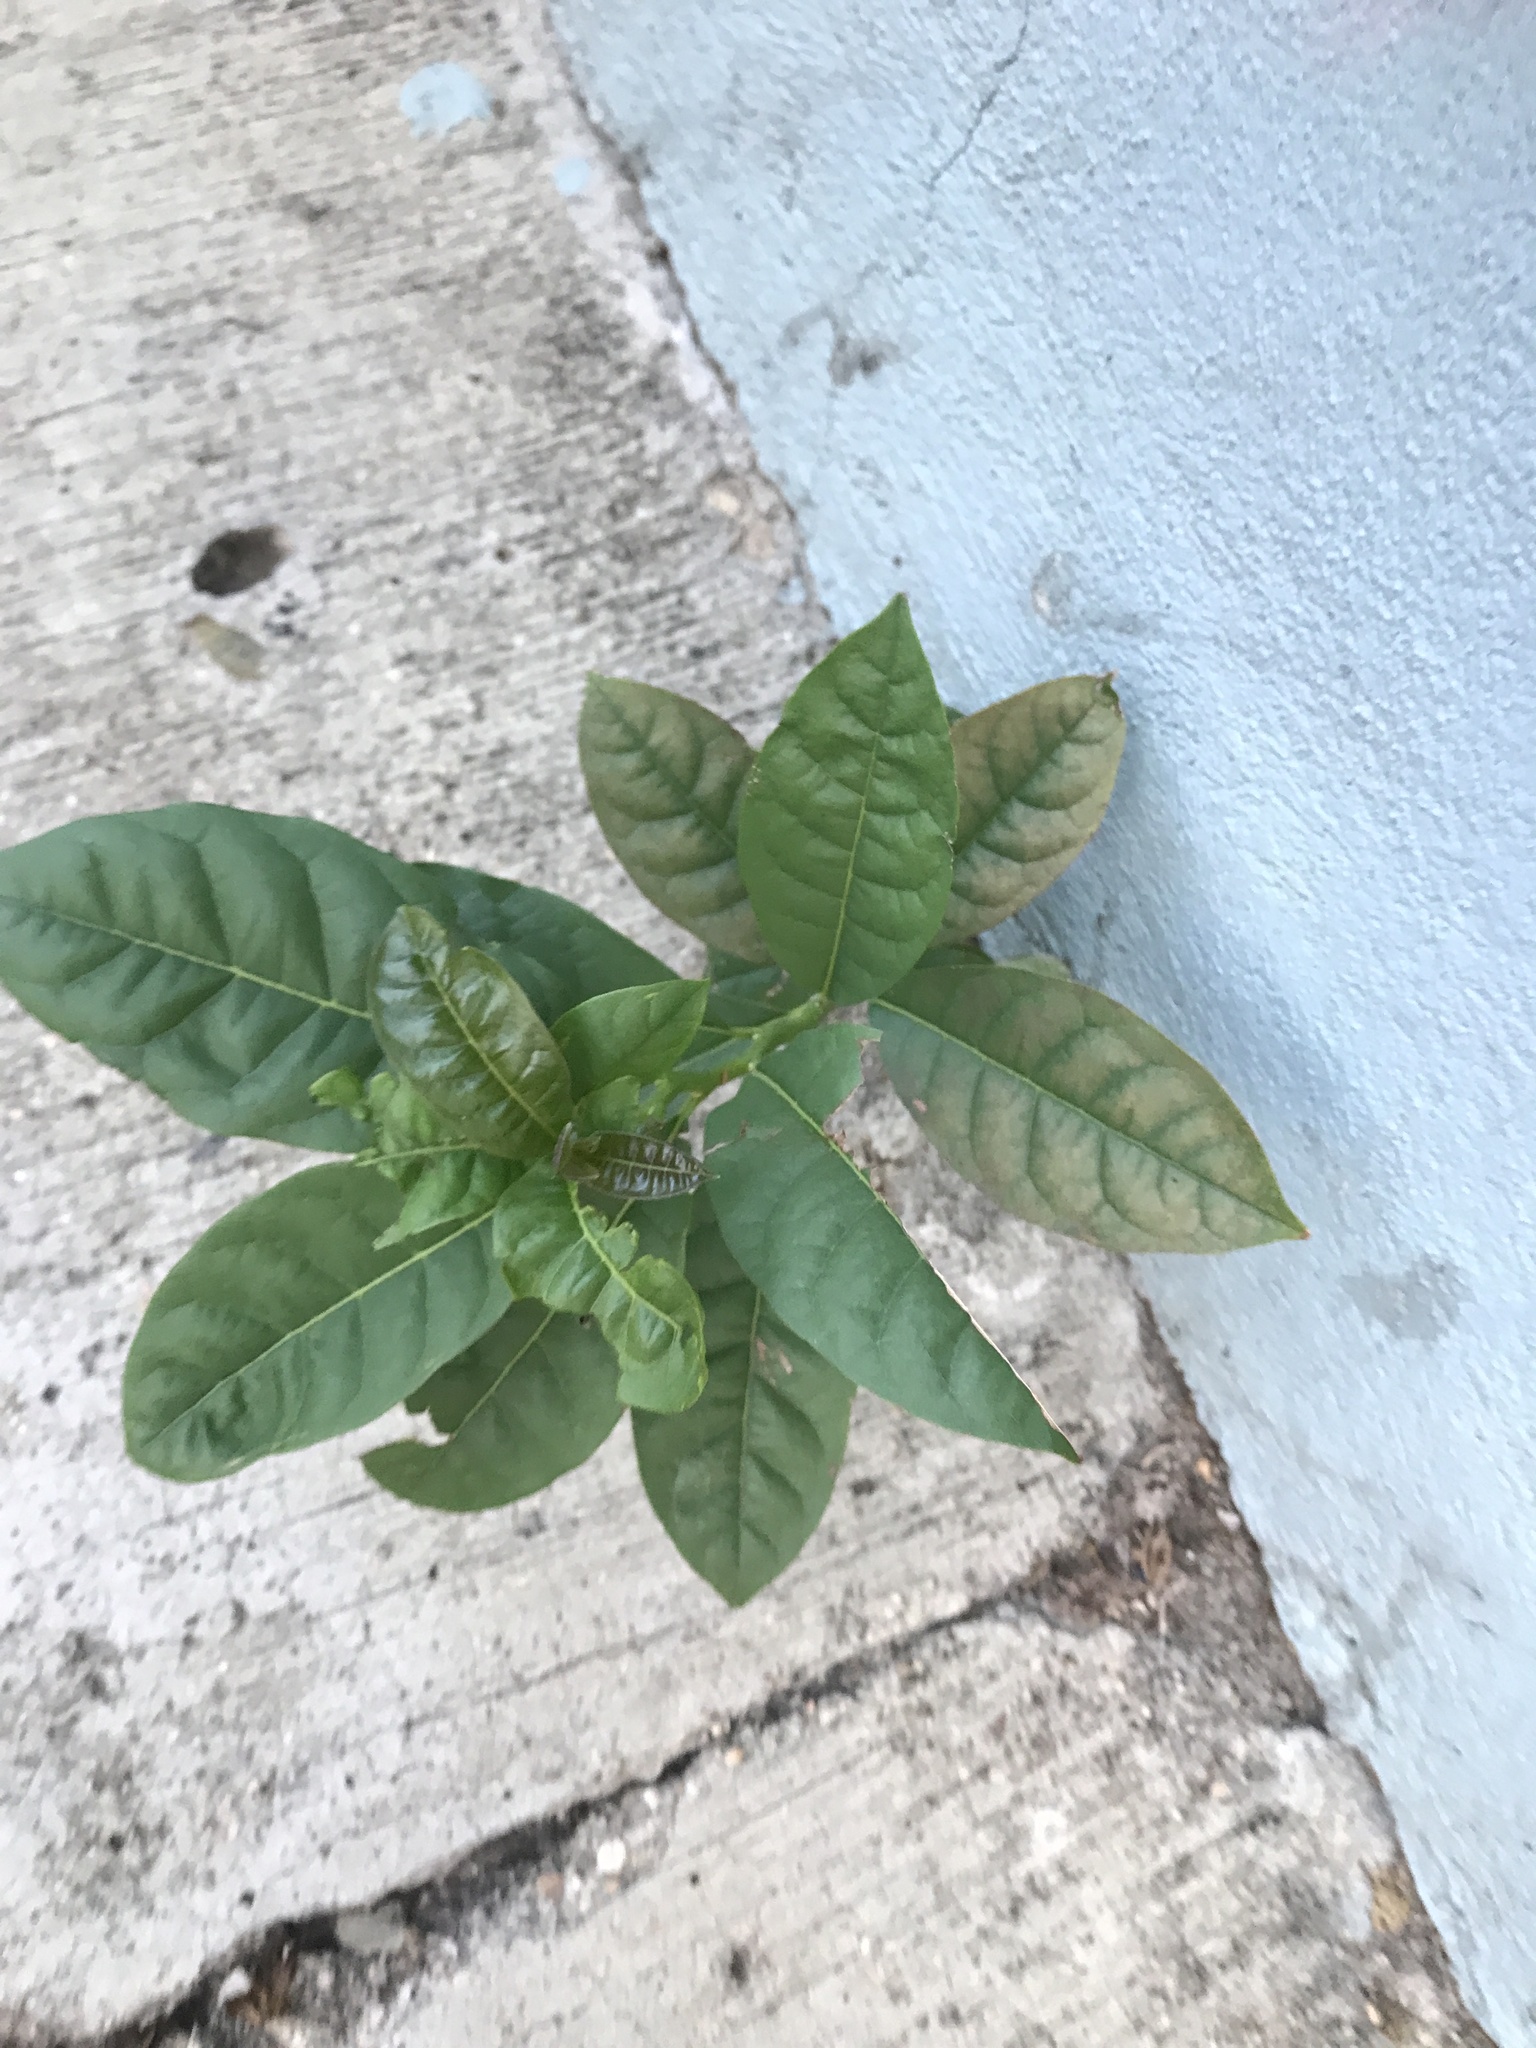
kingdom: Plantae
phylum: Tracheophyta
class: Magnoliopsida
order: Sapindales
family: Rutaceae
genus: Citrus
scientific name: Citrus limon
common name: Lemon
